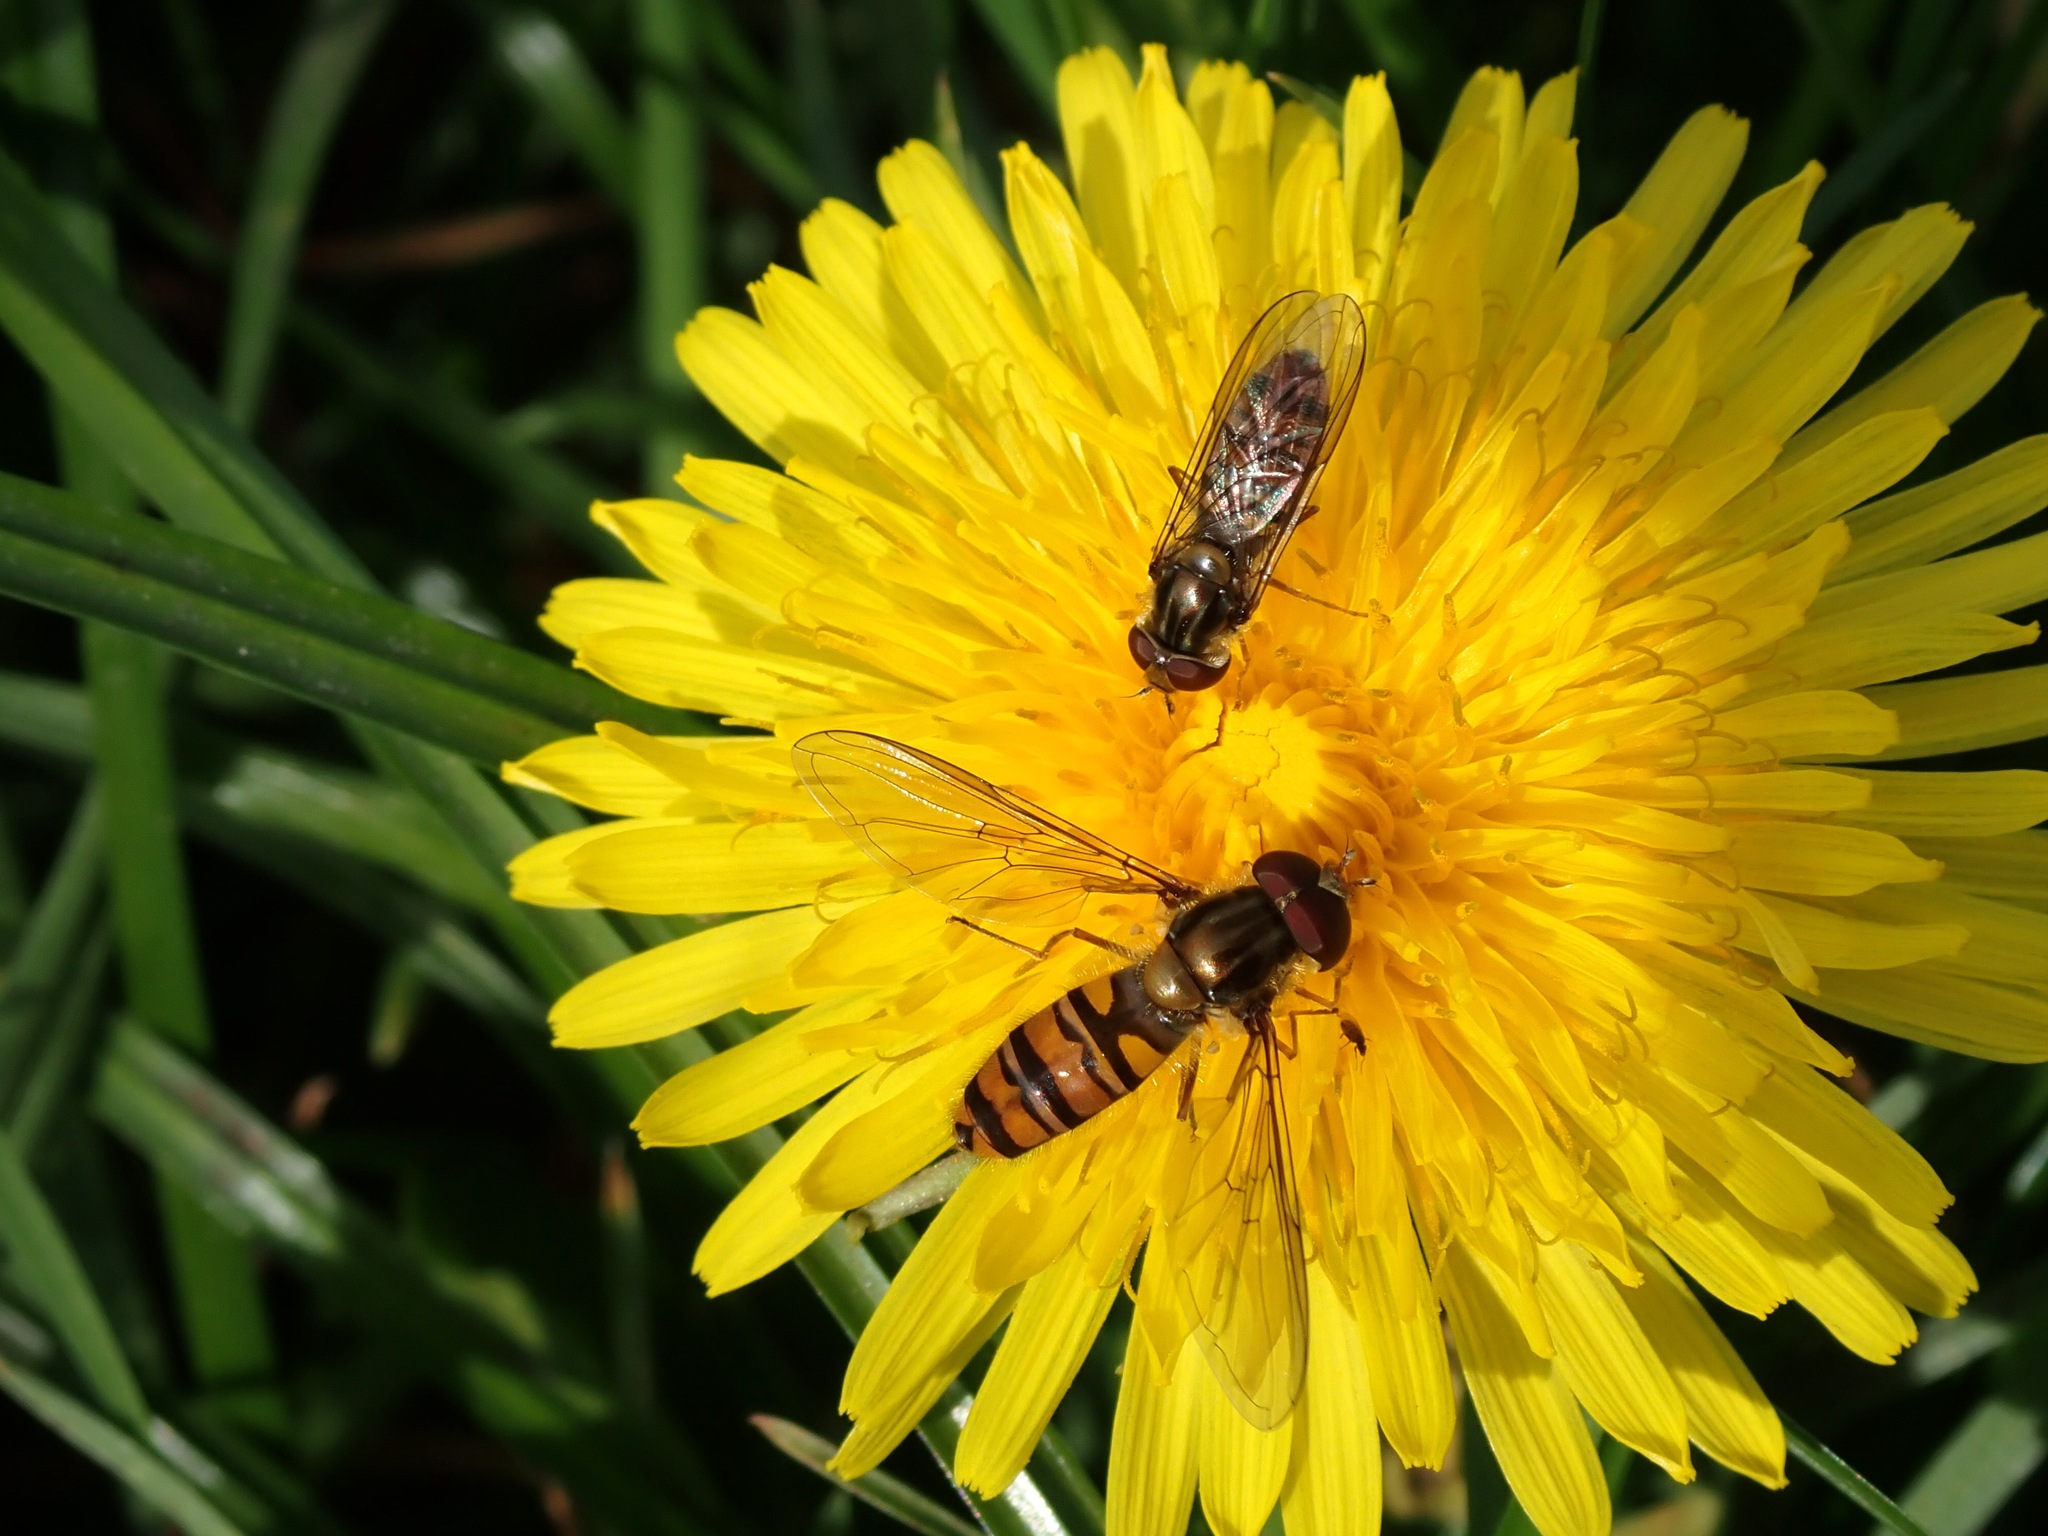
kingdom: Animalia
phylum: Arthropoda
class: Insecta
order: Diptera
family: Syrphidae
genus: Episyrphus
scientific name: Episyrphus balteatus
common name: Marmalade hoverfly
